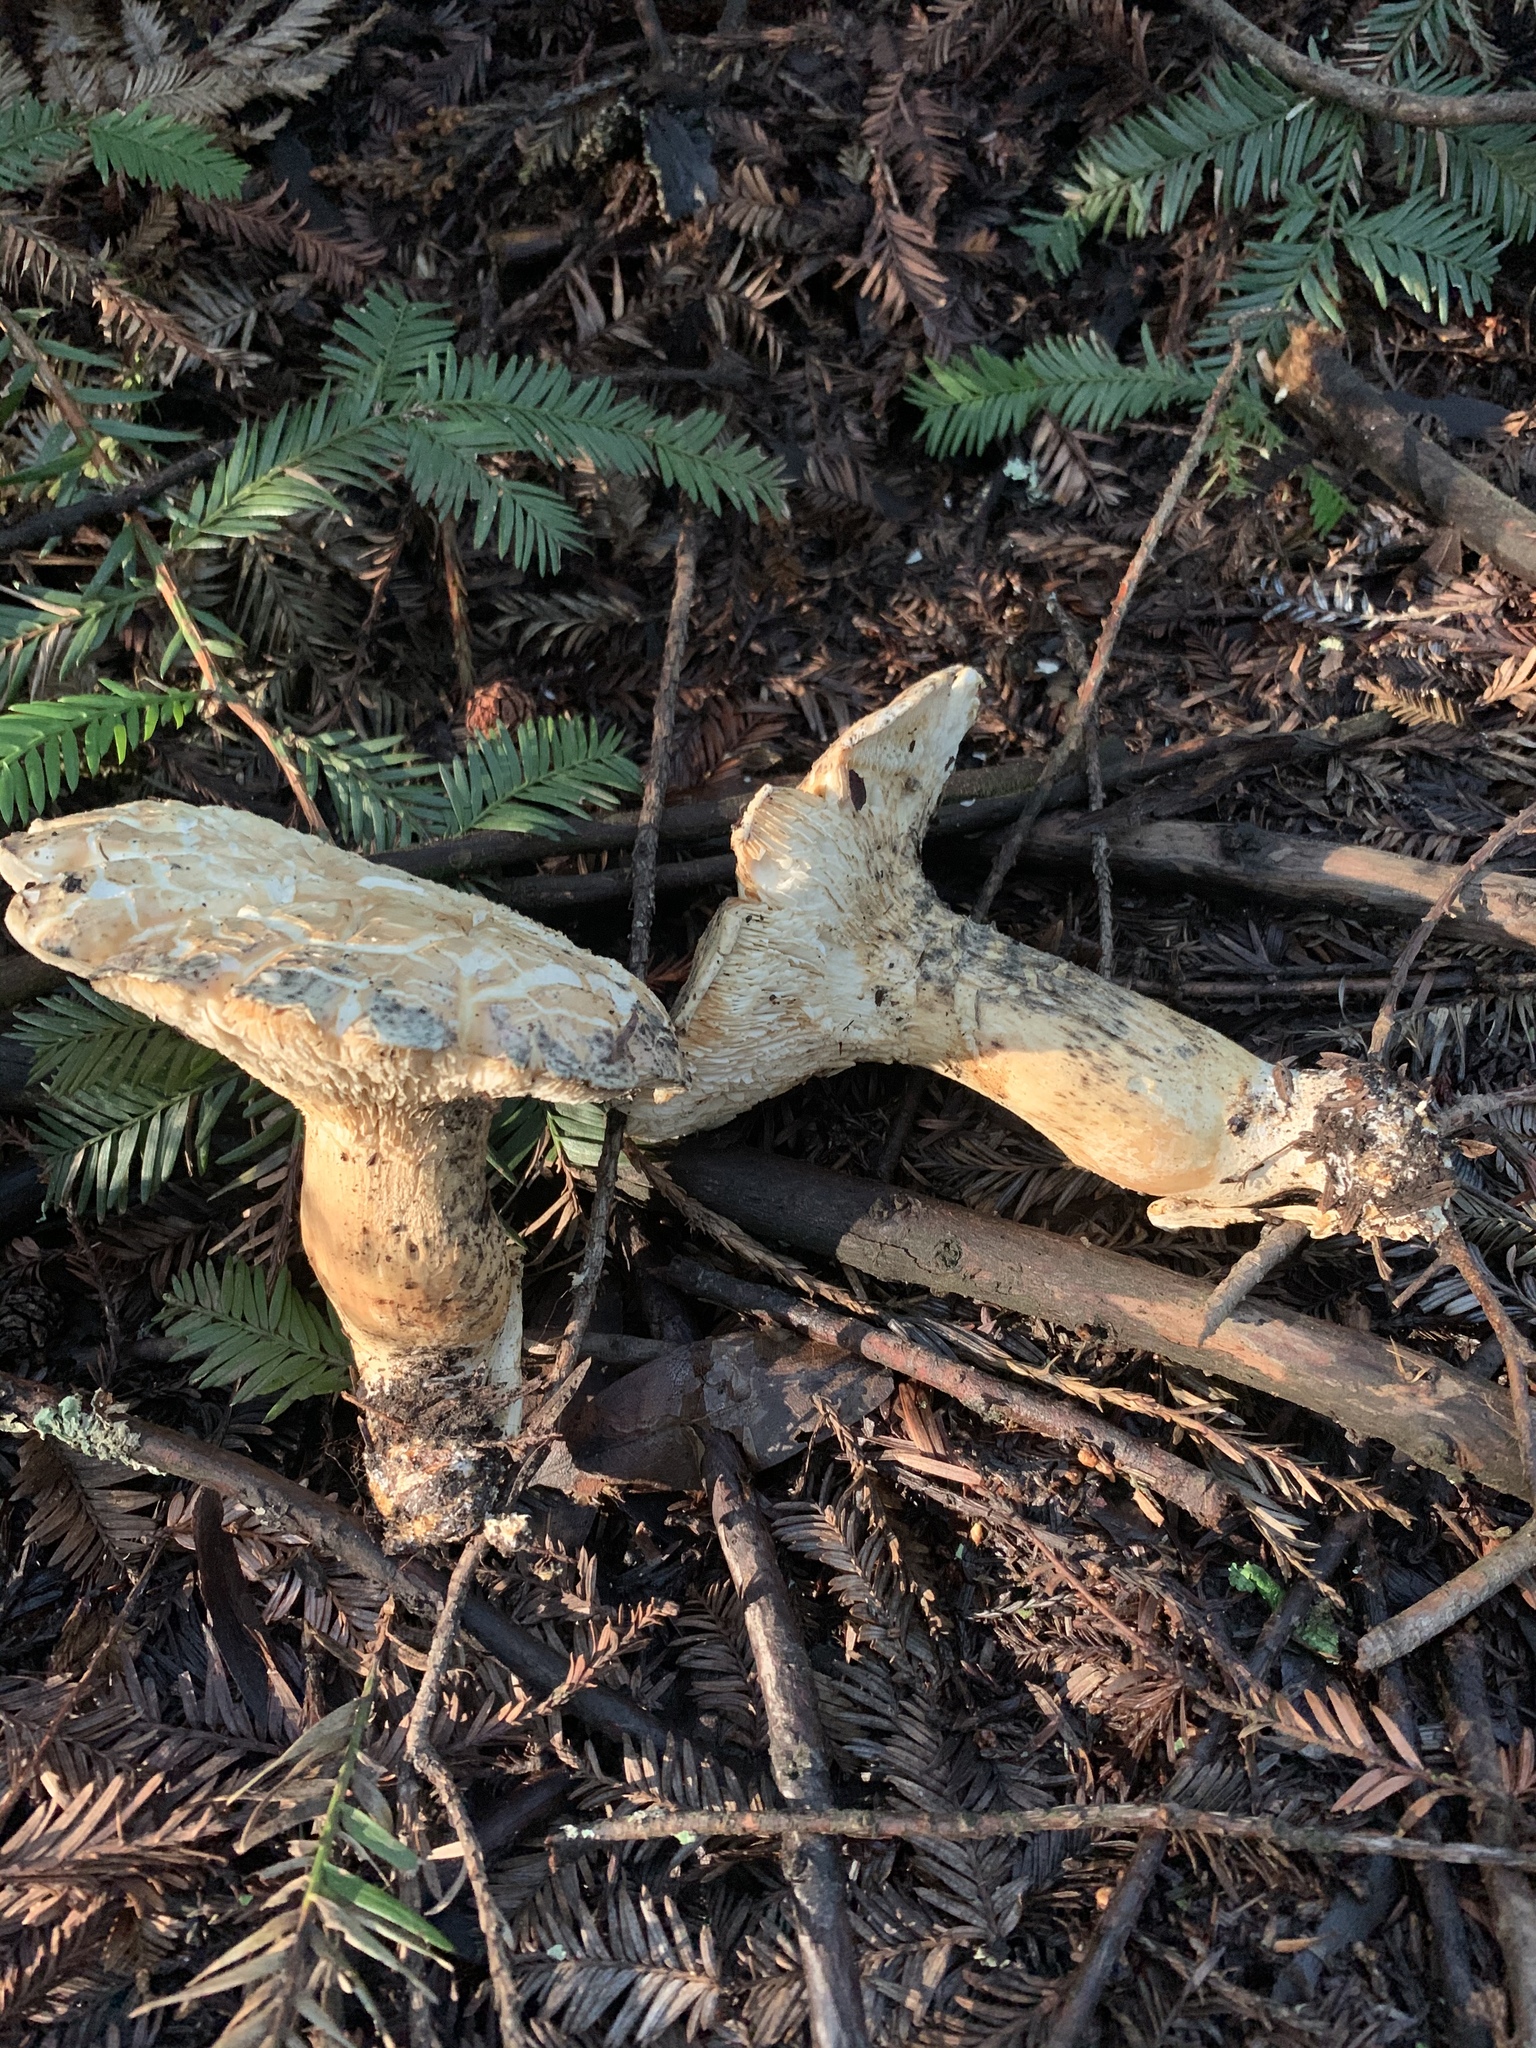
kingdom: Fungi
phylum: Basidiomycota
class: Agaricomycetes
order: Agaricales
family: Tricholomataceae
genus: Leucopaxillus
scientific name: Leucopaxillus albissimus
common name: Large white leucopax
